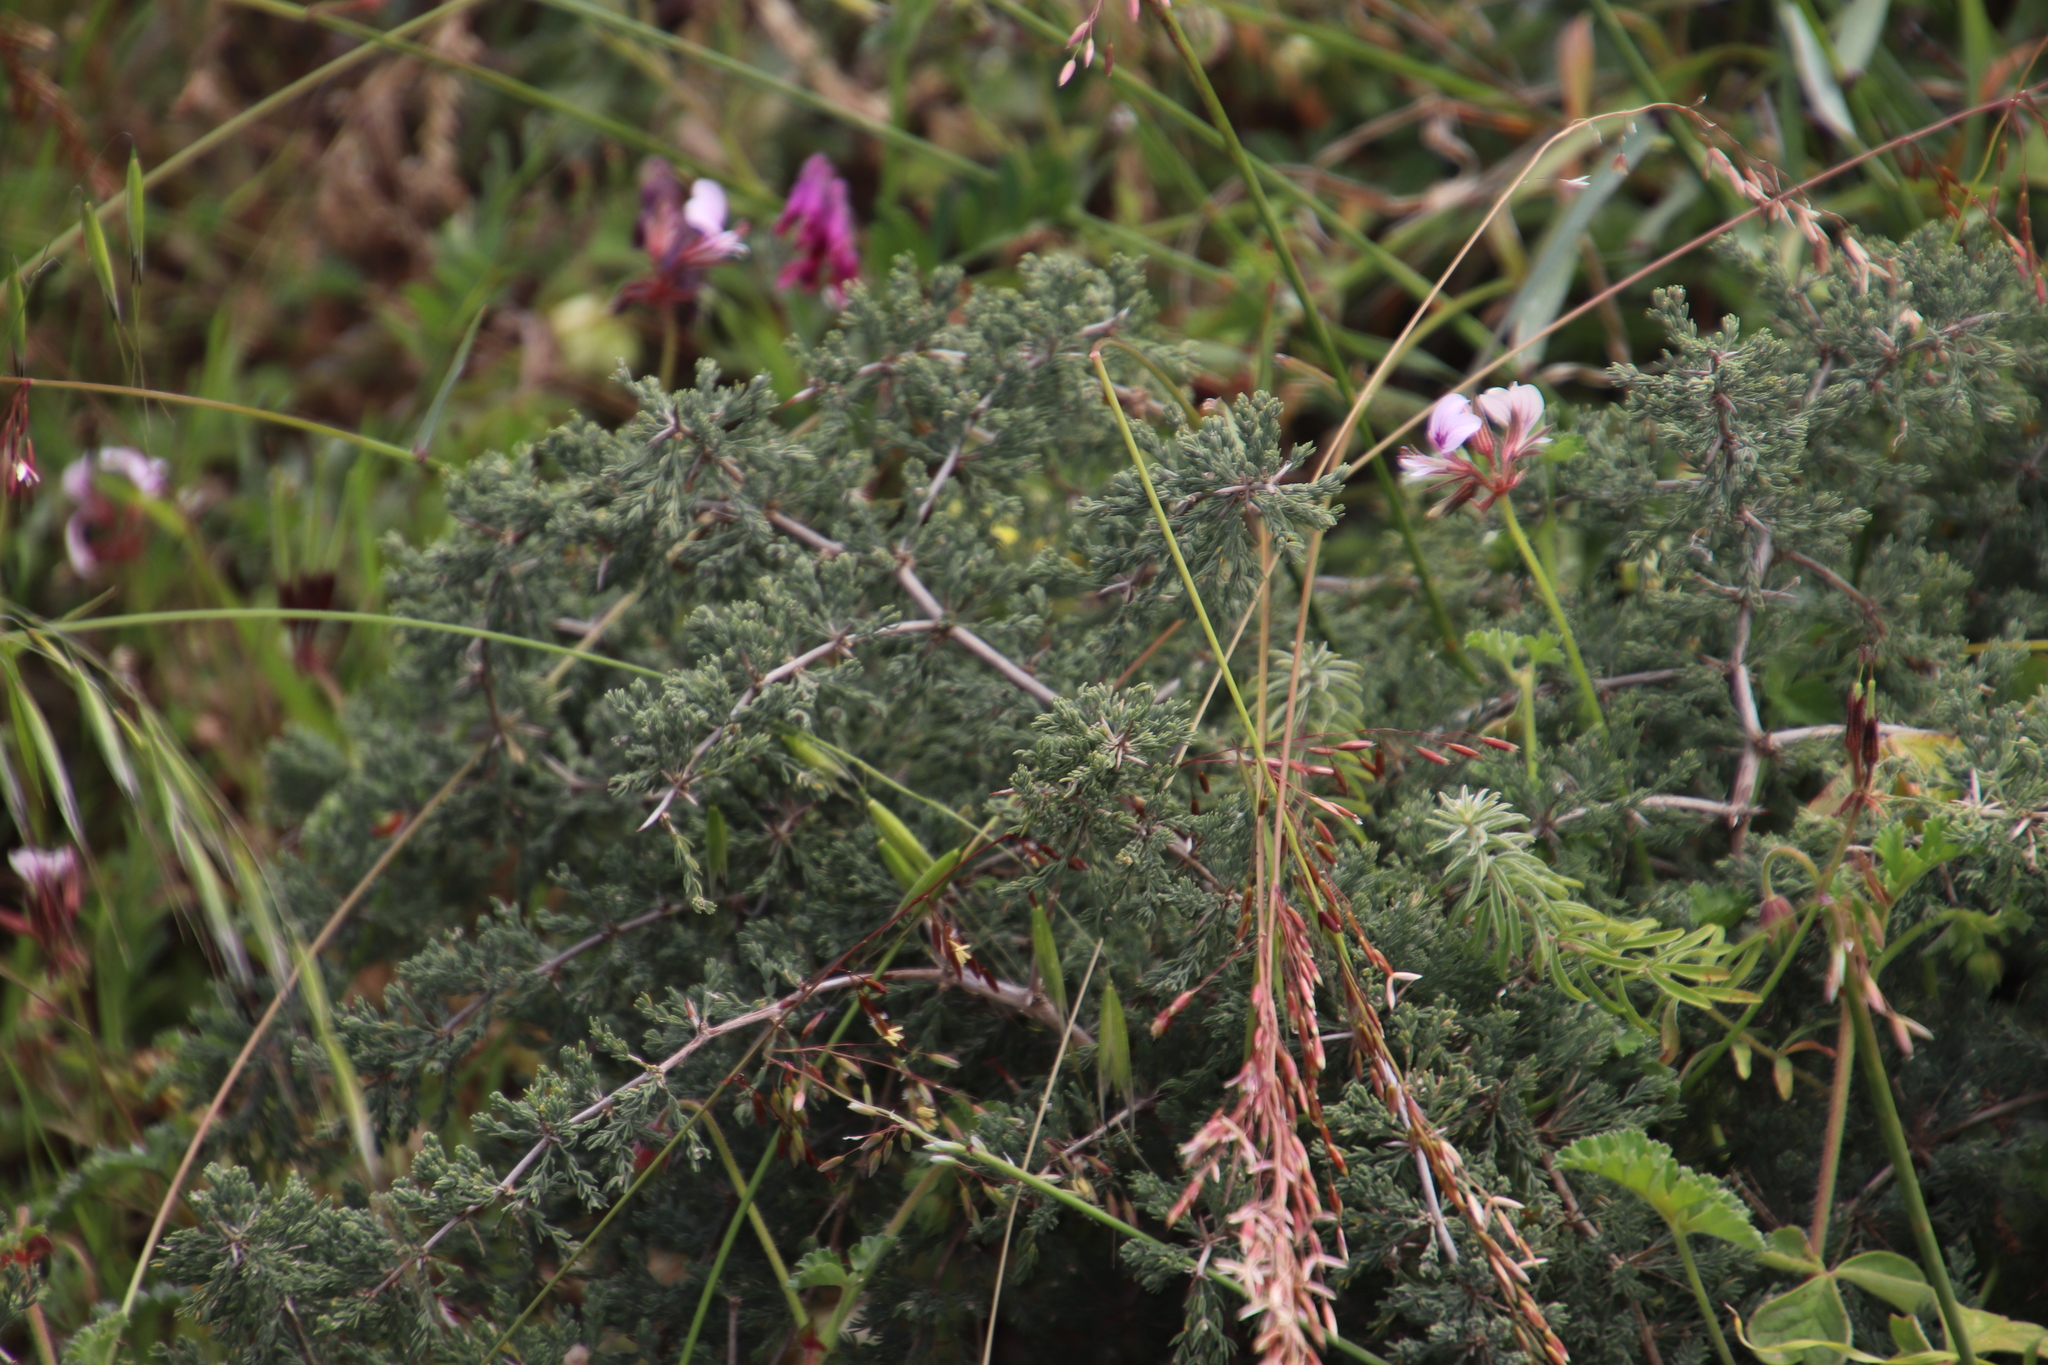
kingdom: Plantae
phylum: Tracheophyta
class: Liliopsida
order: Asparagales
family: Asparagaceae
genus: Asparagus
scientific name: Asparagus capensis
